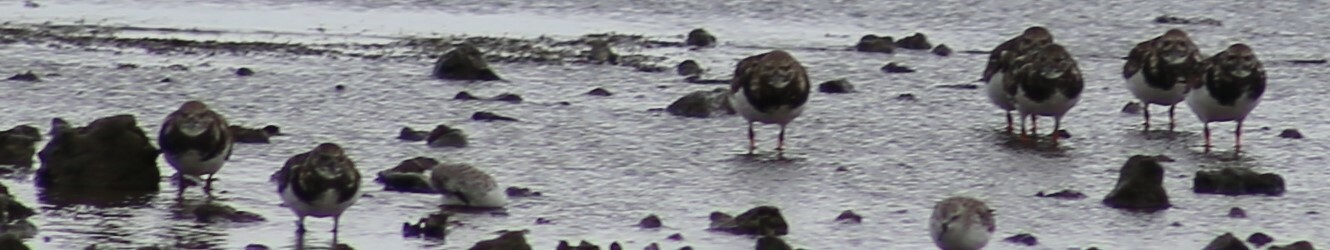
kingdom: Animalia
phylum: Chordata
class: Aves
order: Charadriiformes
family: Scolopacidae
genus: Arenaria
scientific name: Arenaria interpres
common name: Ruddy turnstone
